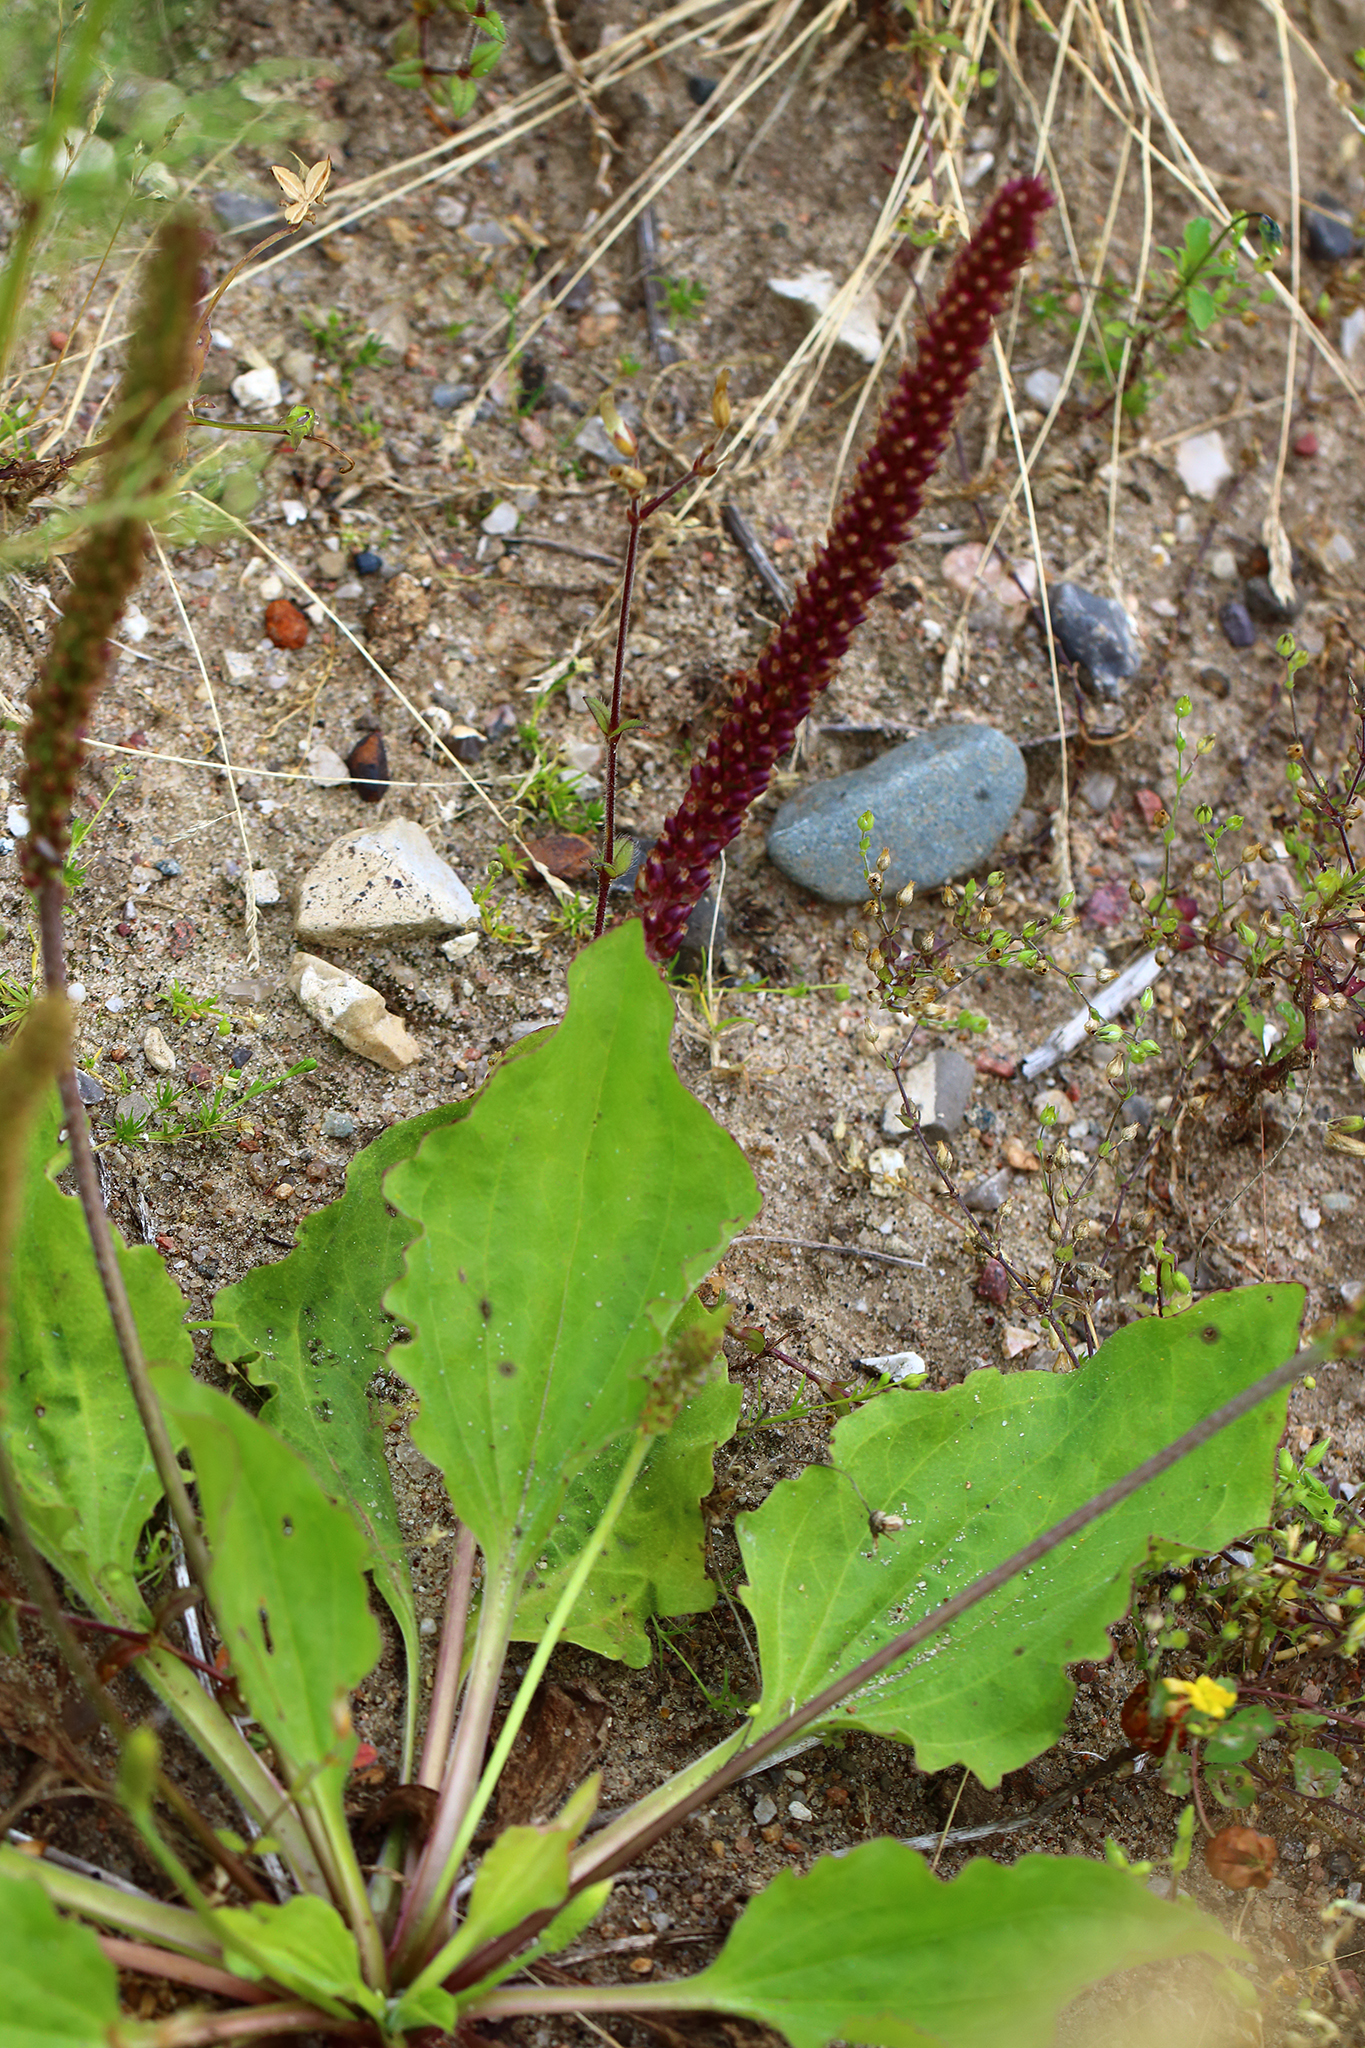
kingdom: Plantae
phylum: Tracheophyta
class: Magnoliopsida
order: Lamiales
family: Plantaginaceae
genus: Plantago
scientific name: Plantago major
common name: Common plantain
